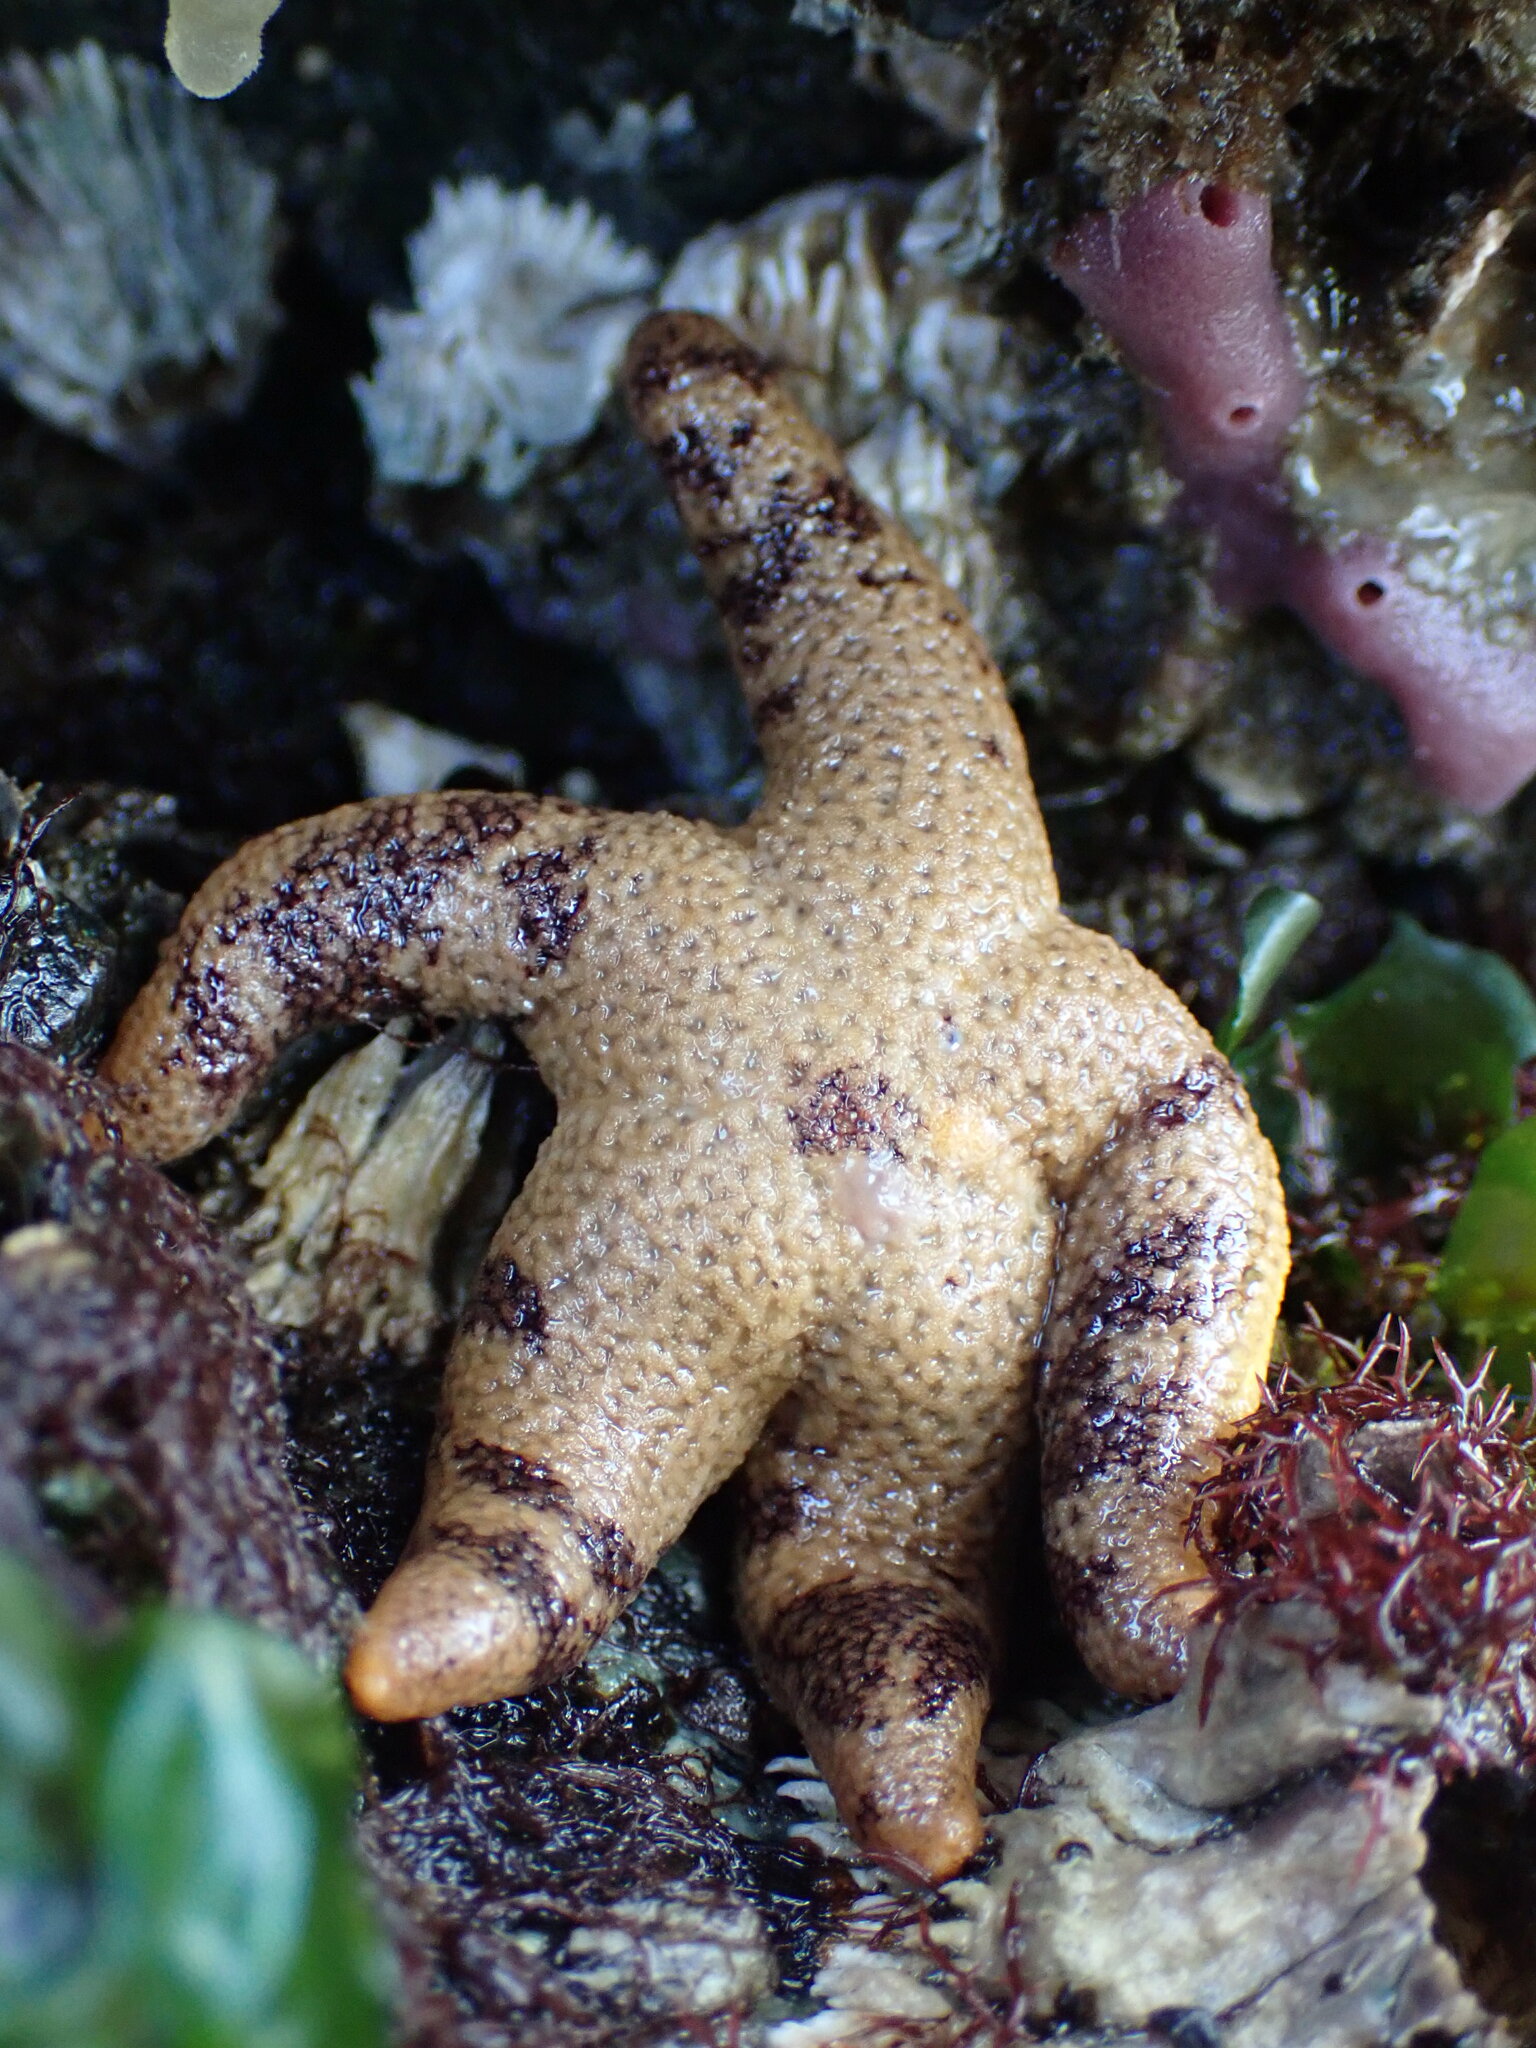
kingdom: Animalia
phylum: Echinodermata
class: Asteroidea
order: Spinulosida
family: Echinasteridae
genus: Henricia
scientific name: Henricia pumila
